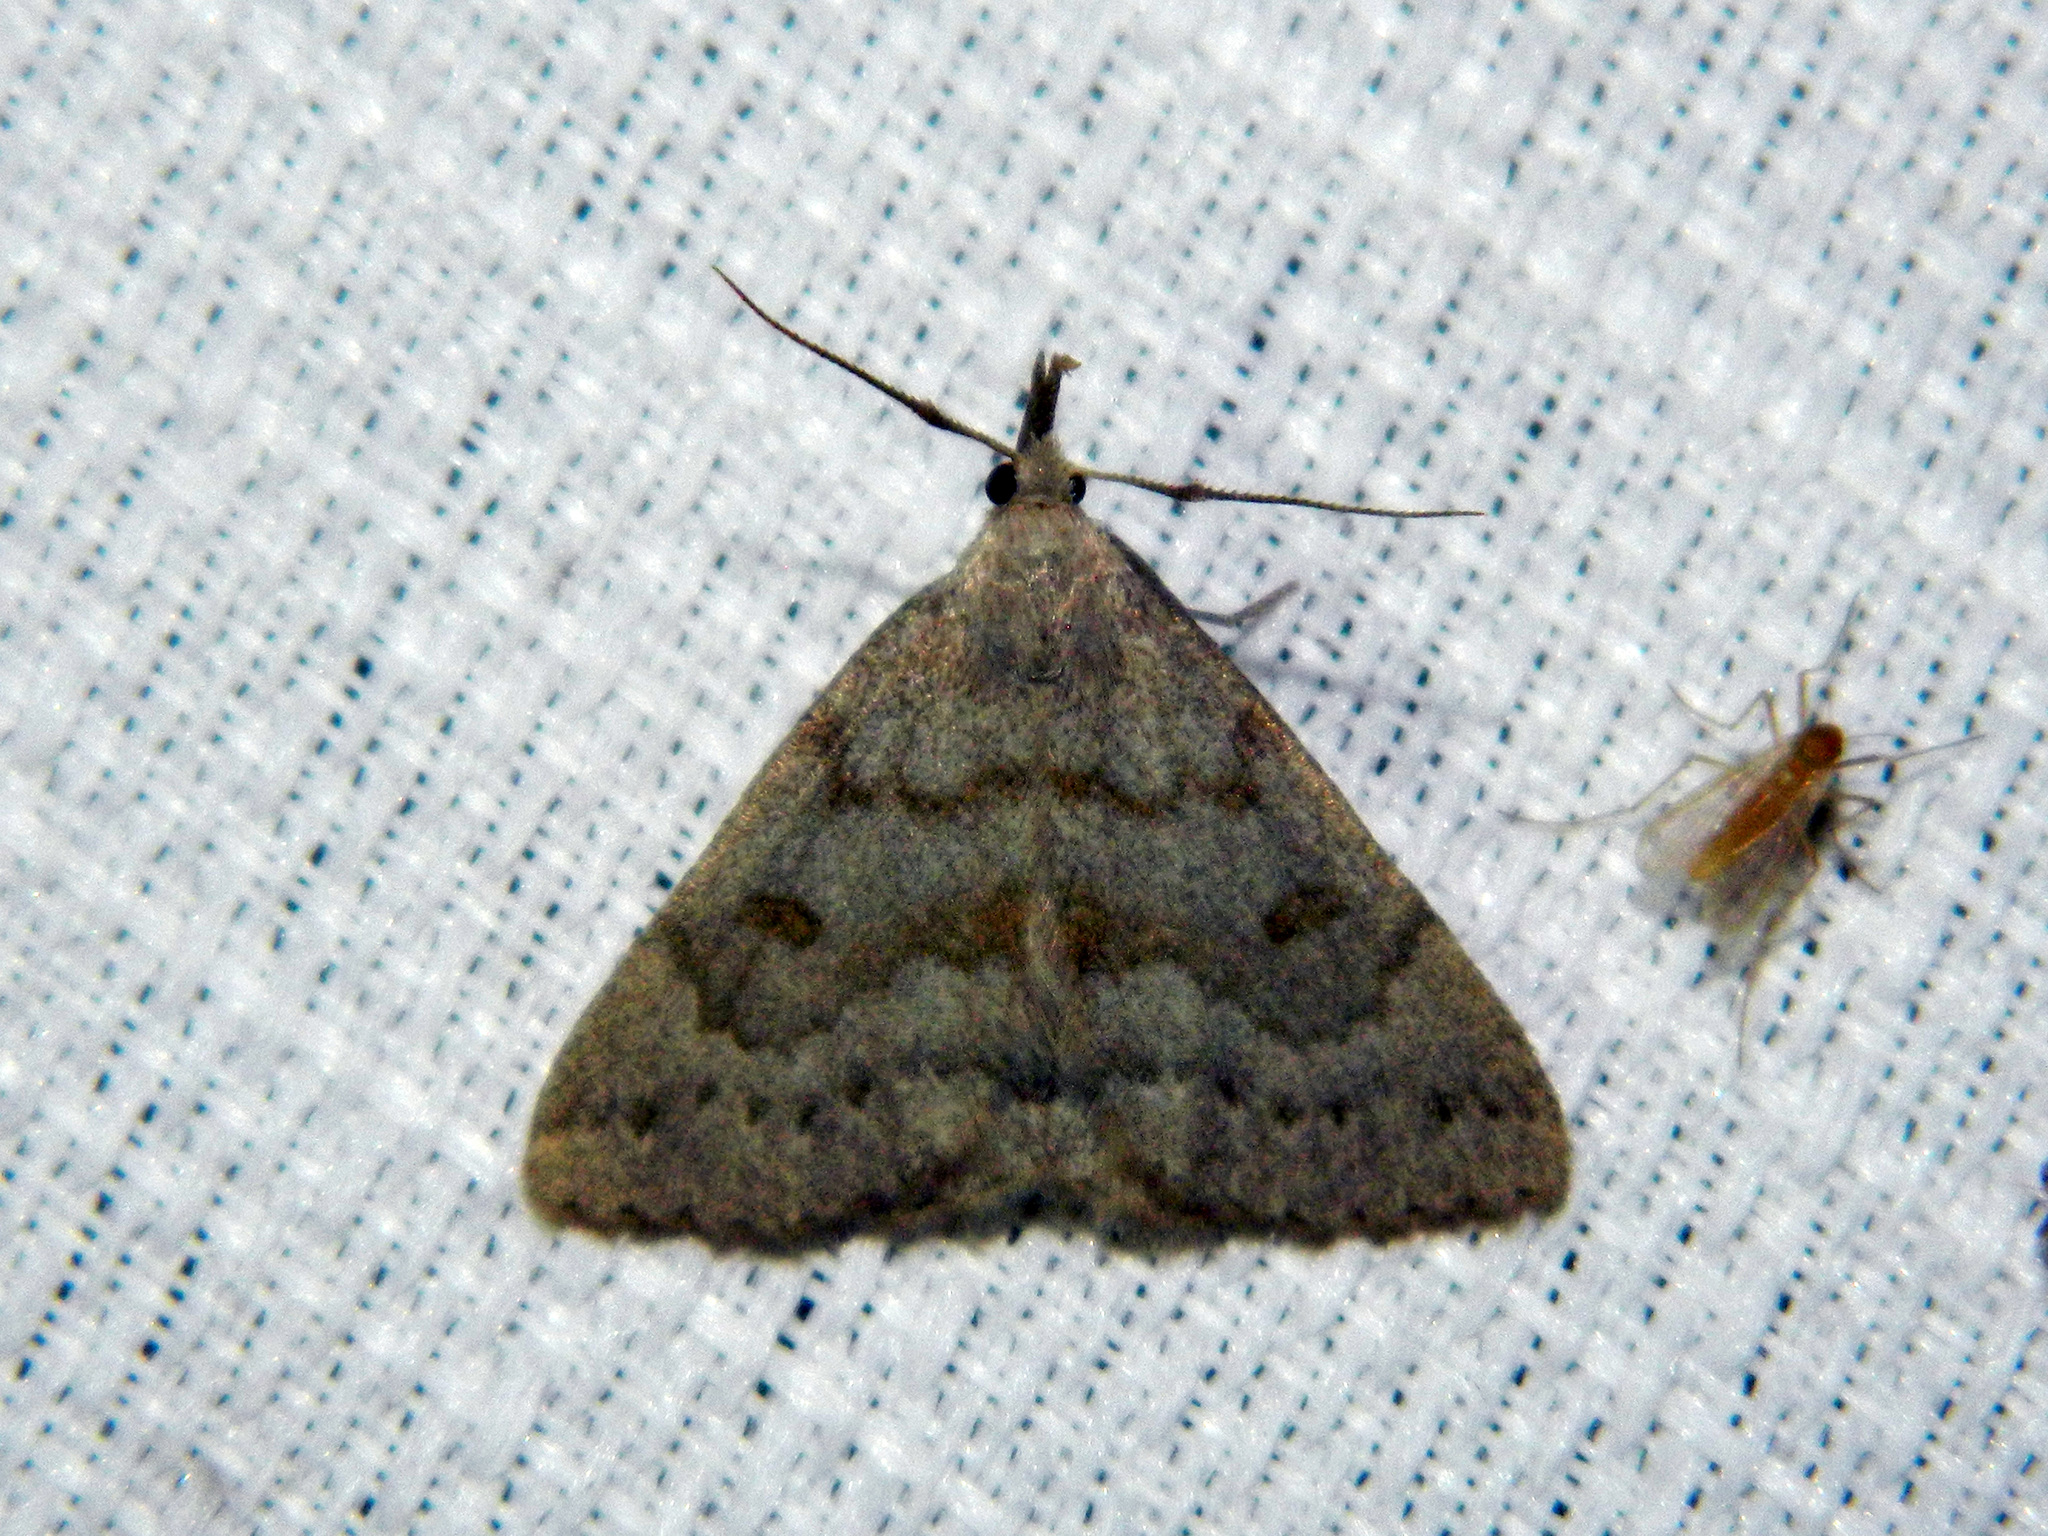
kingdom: Animalia
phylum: Arthropoda
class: Insecta
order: Lepidoptera
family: Erebidae
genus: Macrochilo
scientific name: Macrochilo morbidalis
